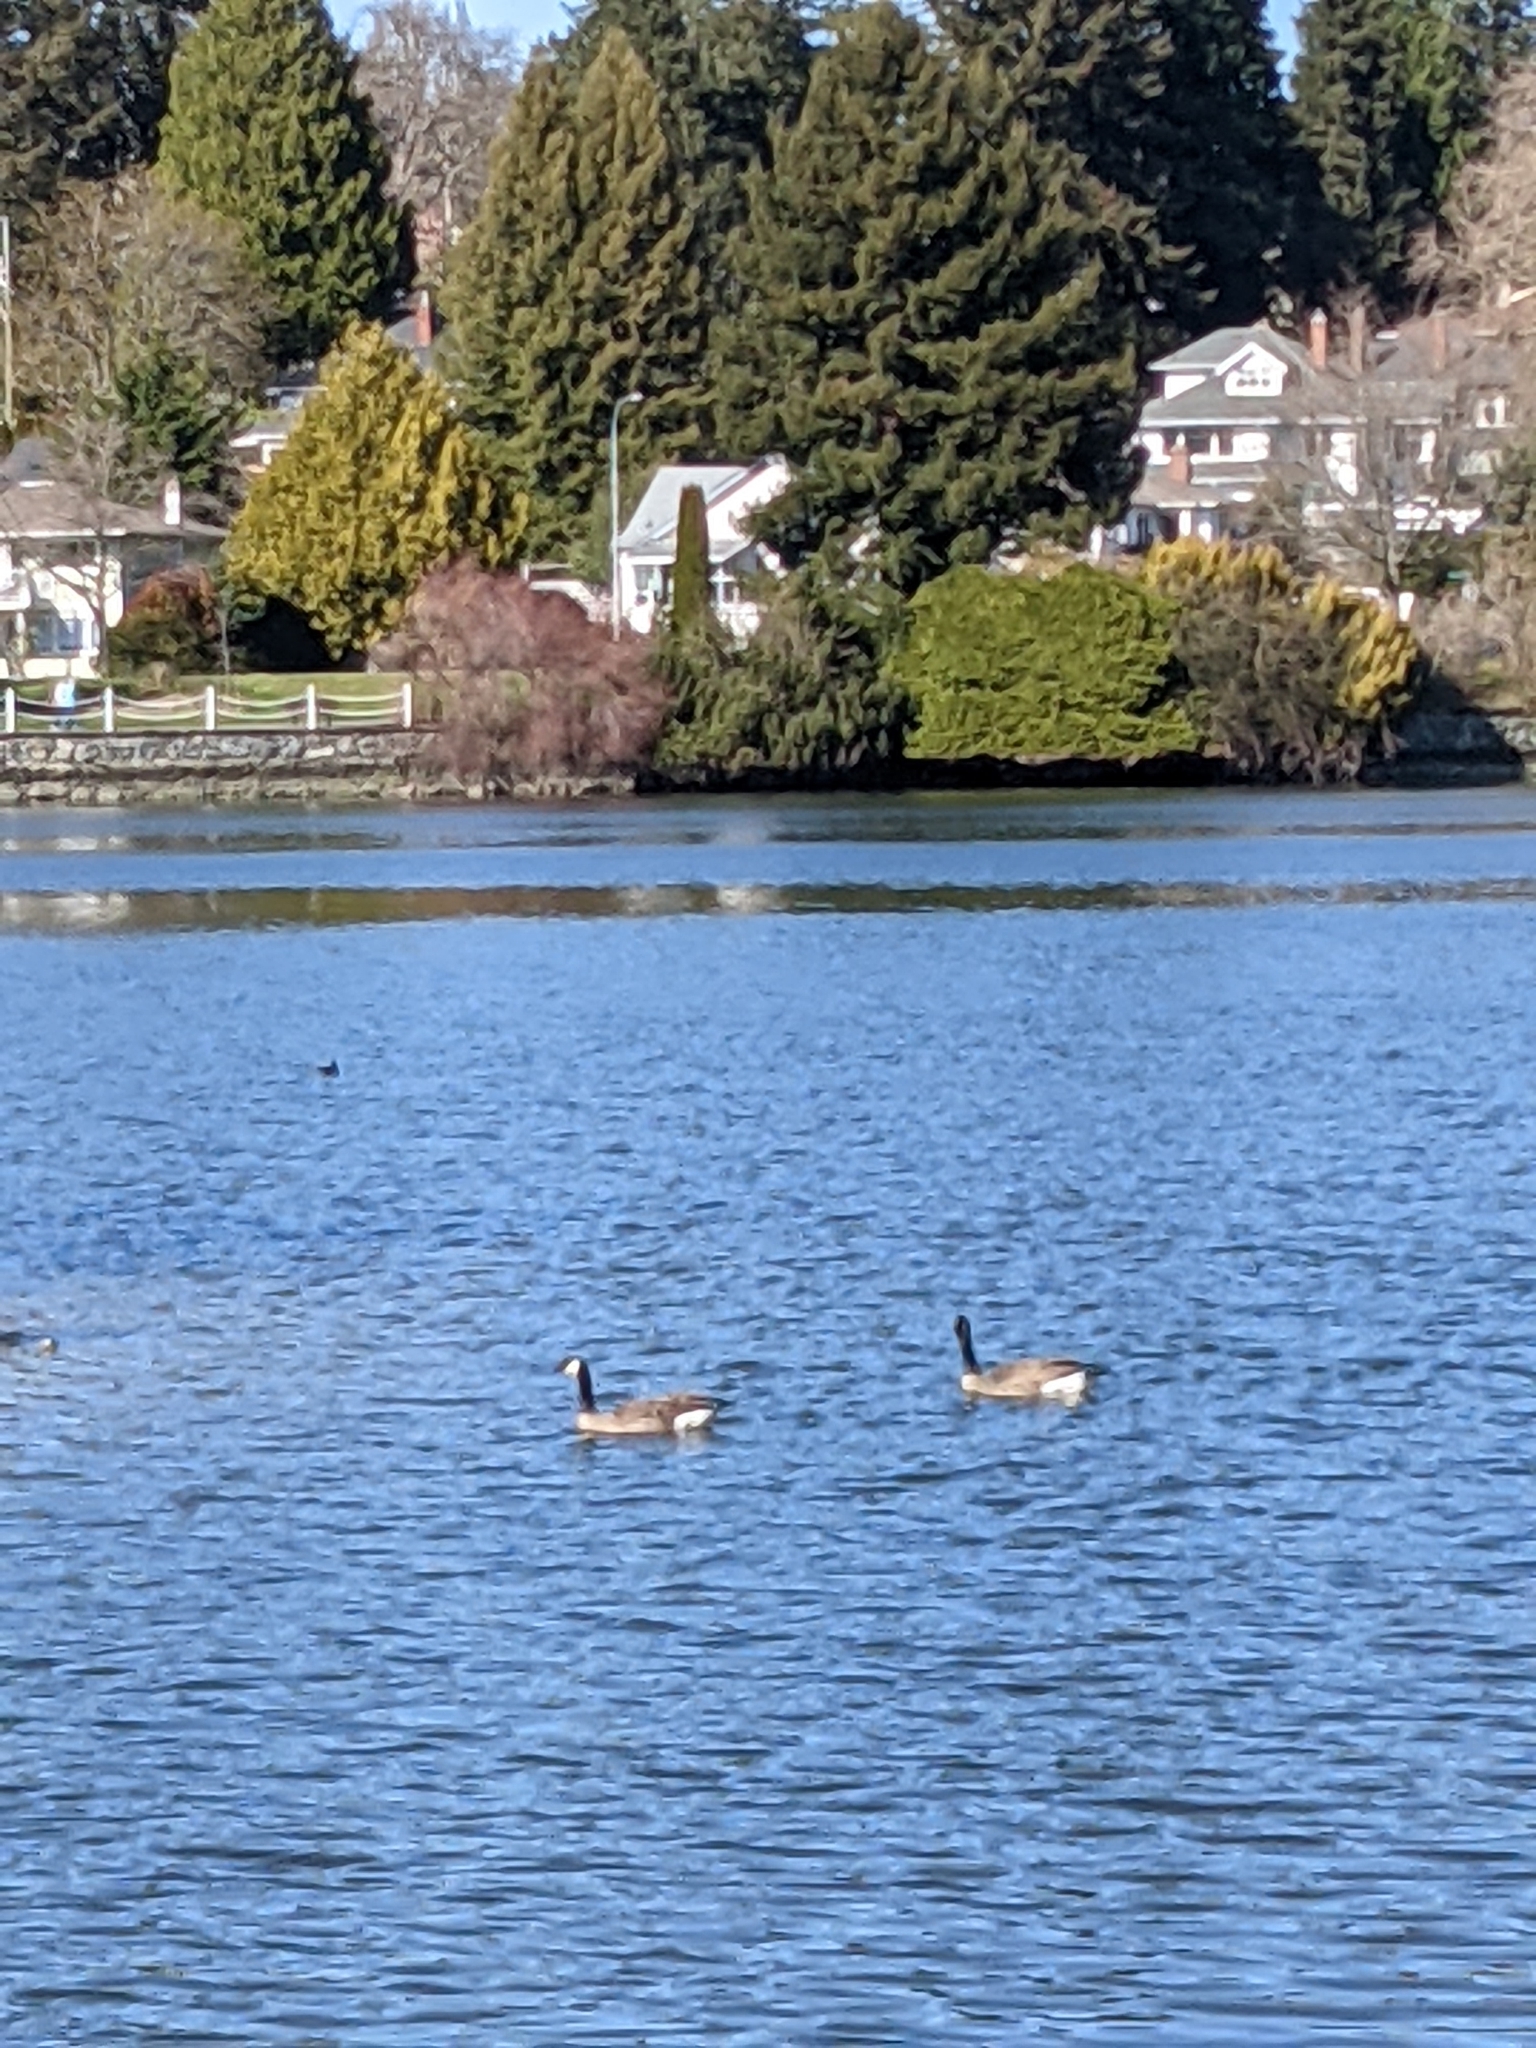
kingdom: Animalia
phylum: Chordata
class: Aves
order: Anseriformes
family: Anatidae
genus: Branta
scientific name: Branta canadensis
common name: Canada goose
